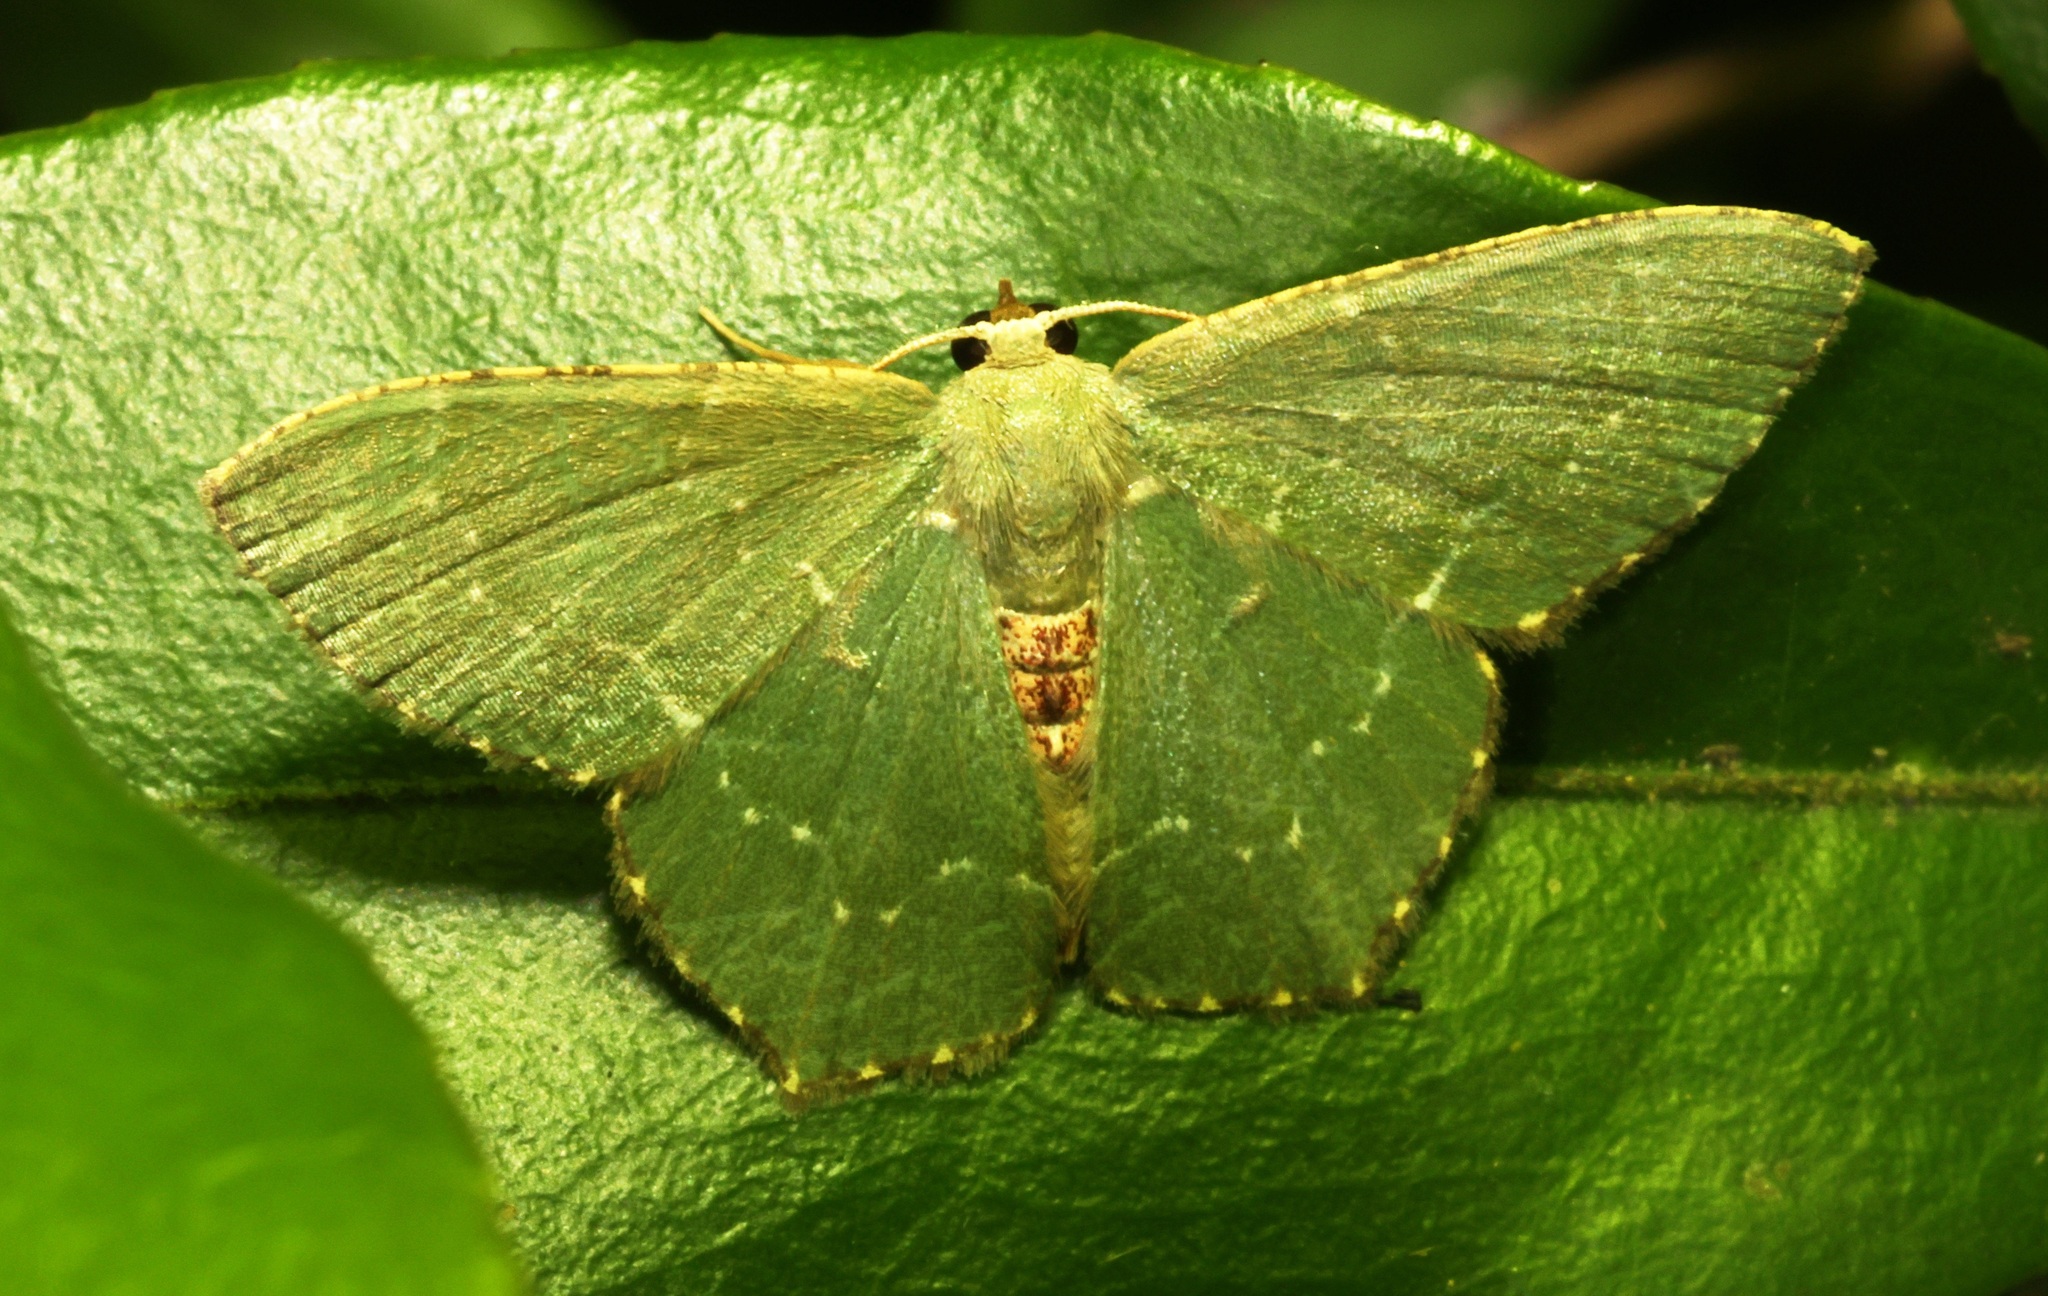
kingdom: Animalia
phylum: Arthropoda
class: Insecta
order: Lepidoptera
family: Geometridae
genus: Hemithea
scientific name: Hemithea tritonaria
